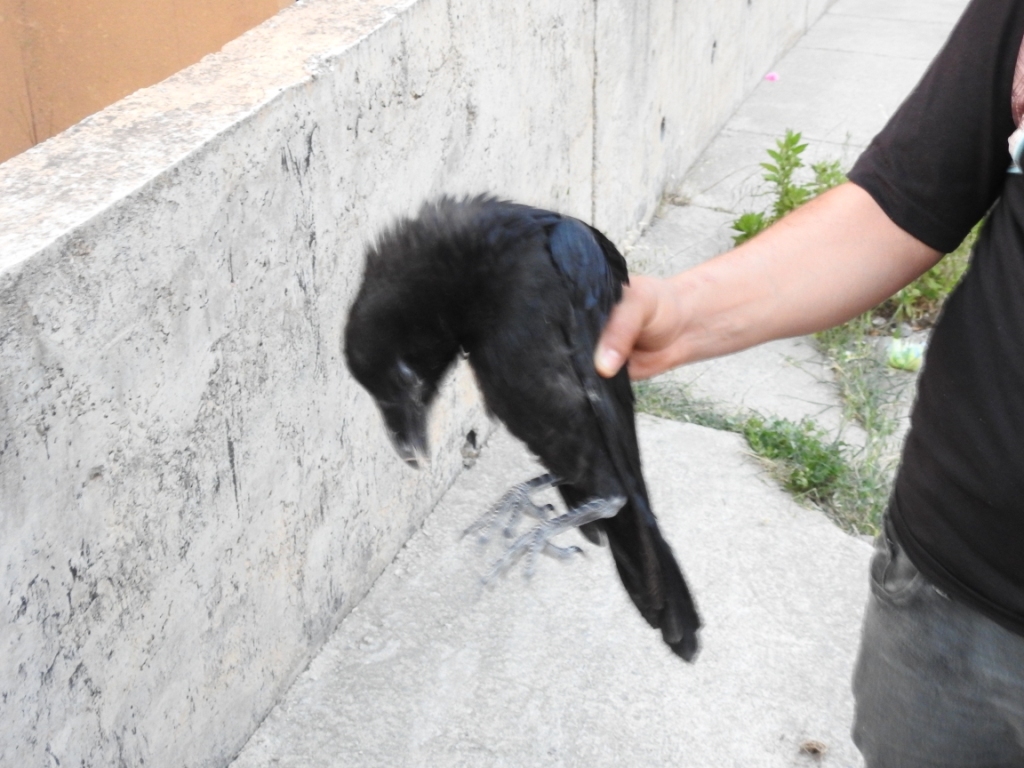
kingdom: Animalia
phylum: Chordata
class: Aves
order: Passeriformes
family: Corvidae
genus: Corvus
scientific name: Corvus corax
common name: Common raven
